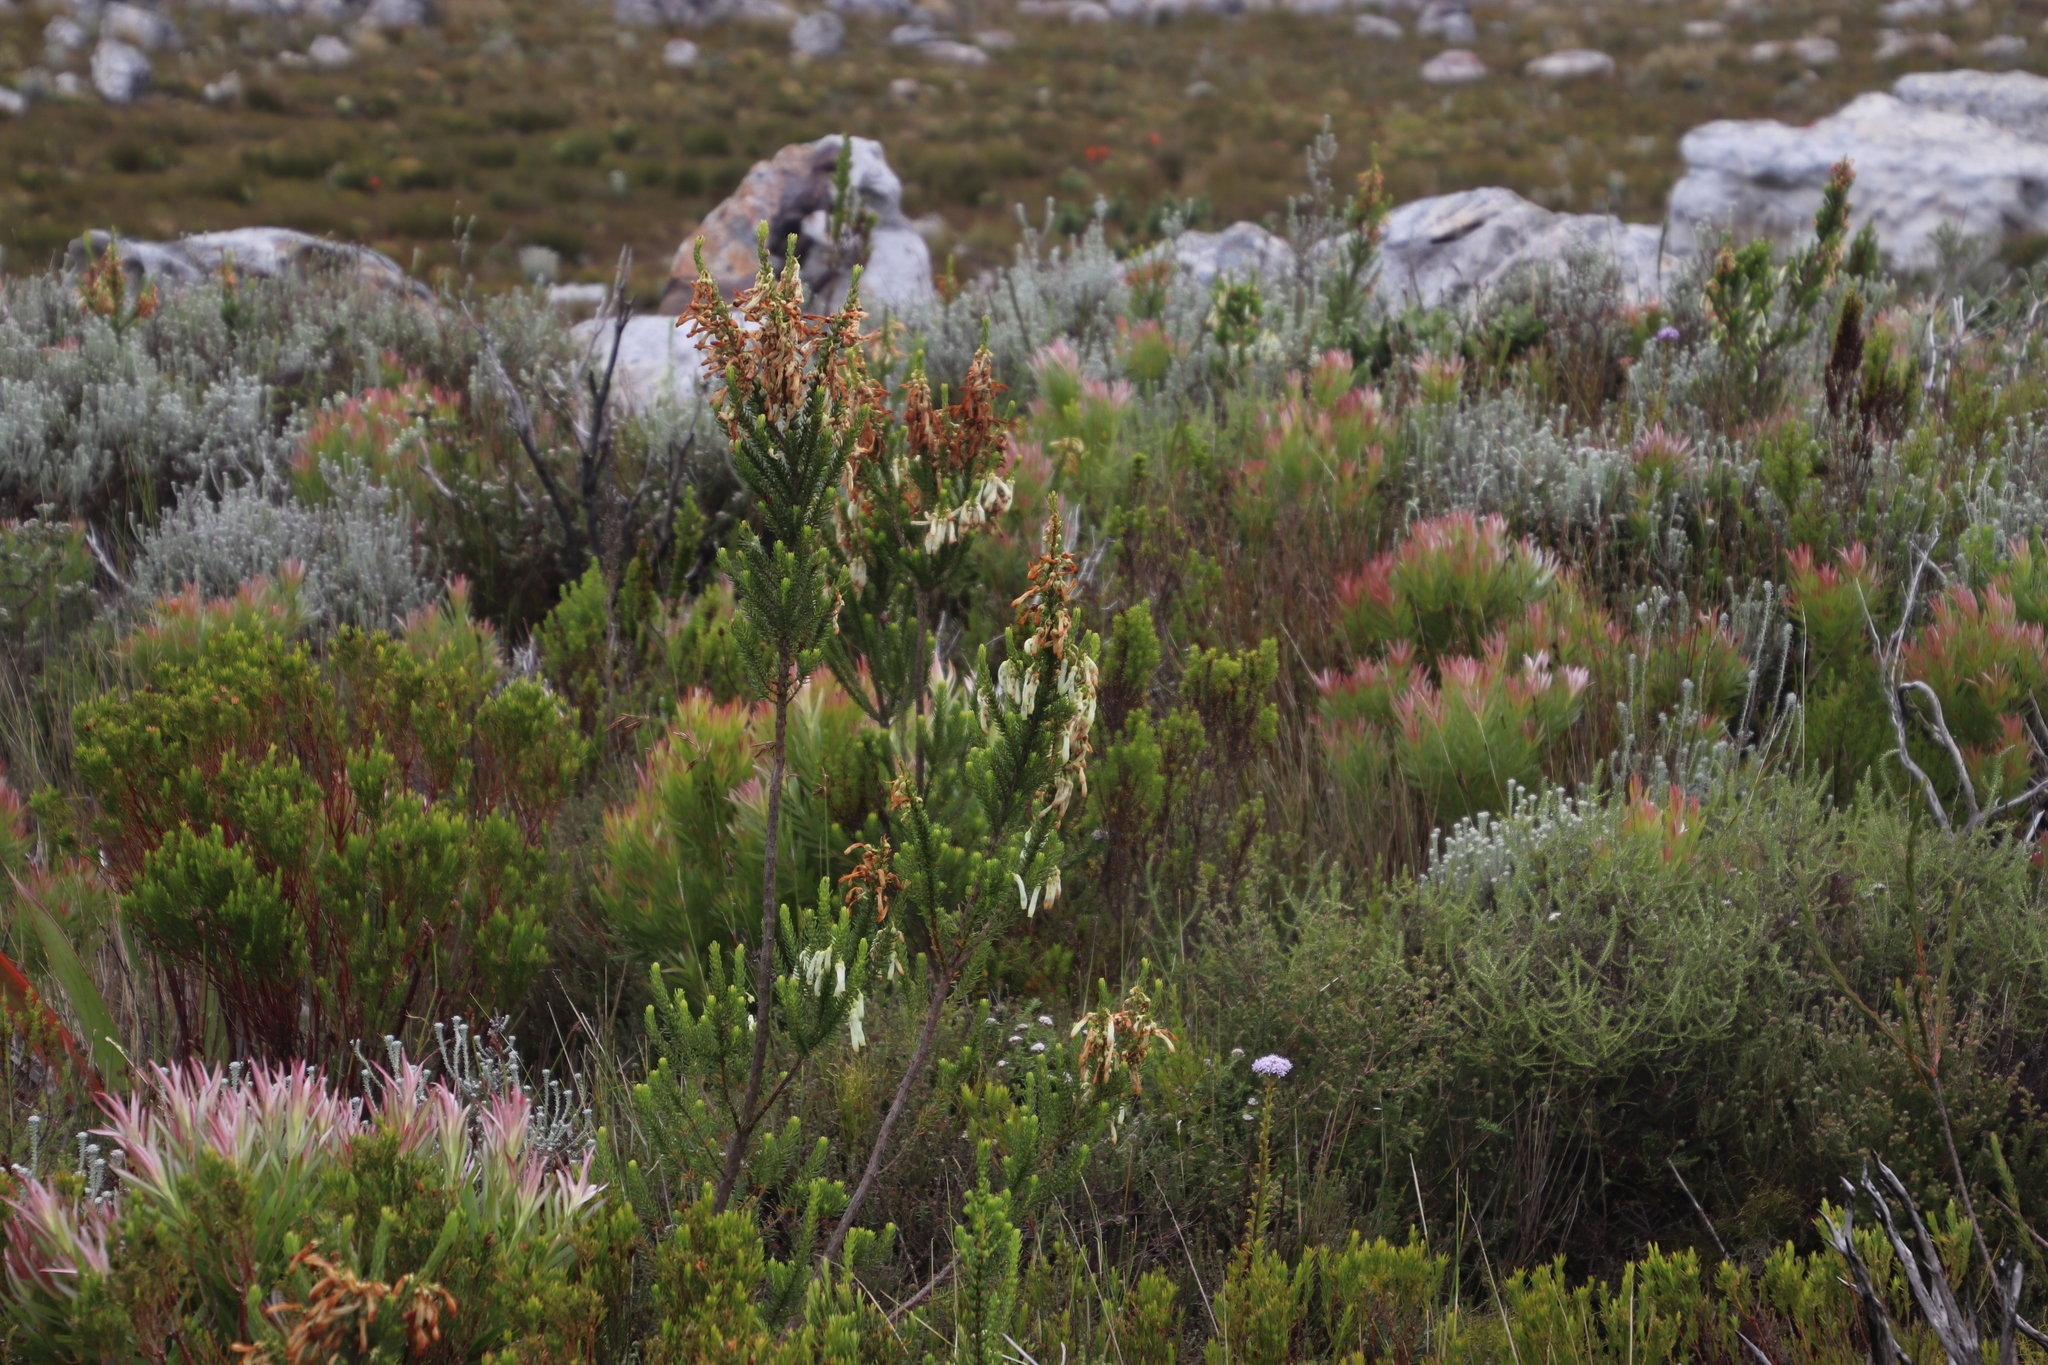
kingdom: Plantae
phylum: Tracheophyta
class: Magnoliopsida
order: Ericales
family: Ericaceae
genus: Erica
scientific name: Erica mammosa
